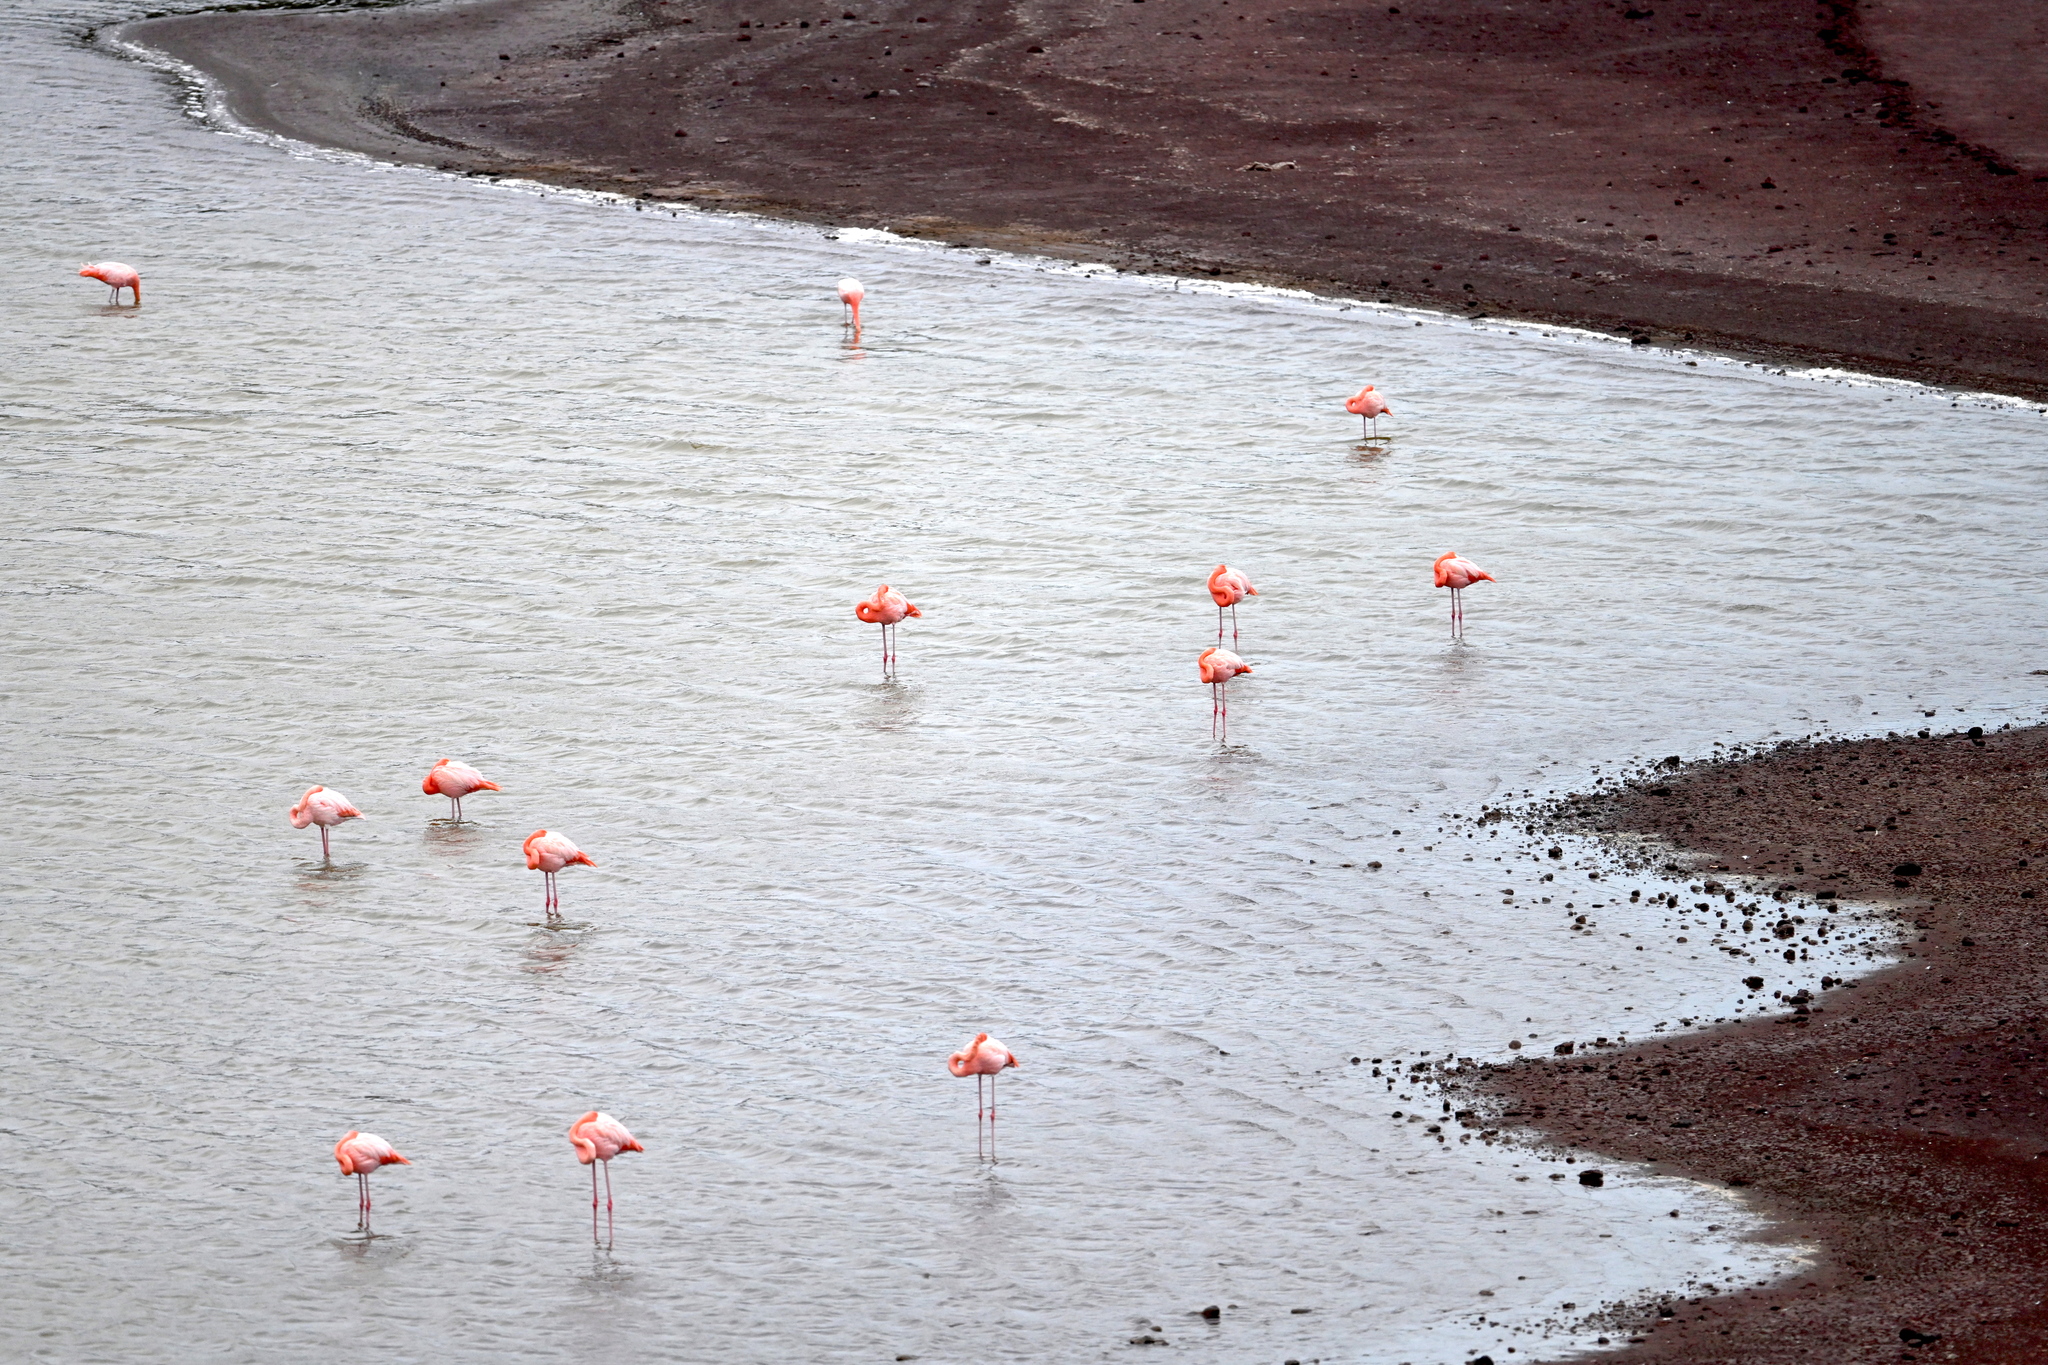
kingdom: Animalia
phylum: Chordata
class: Aves
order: Phoenicopteriformes
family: Phoenicopteridae
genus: Phoenicopterus
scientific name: Phoenicopterus ruber
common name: American flamingo
